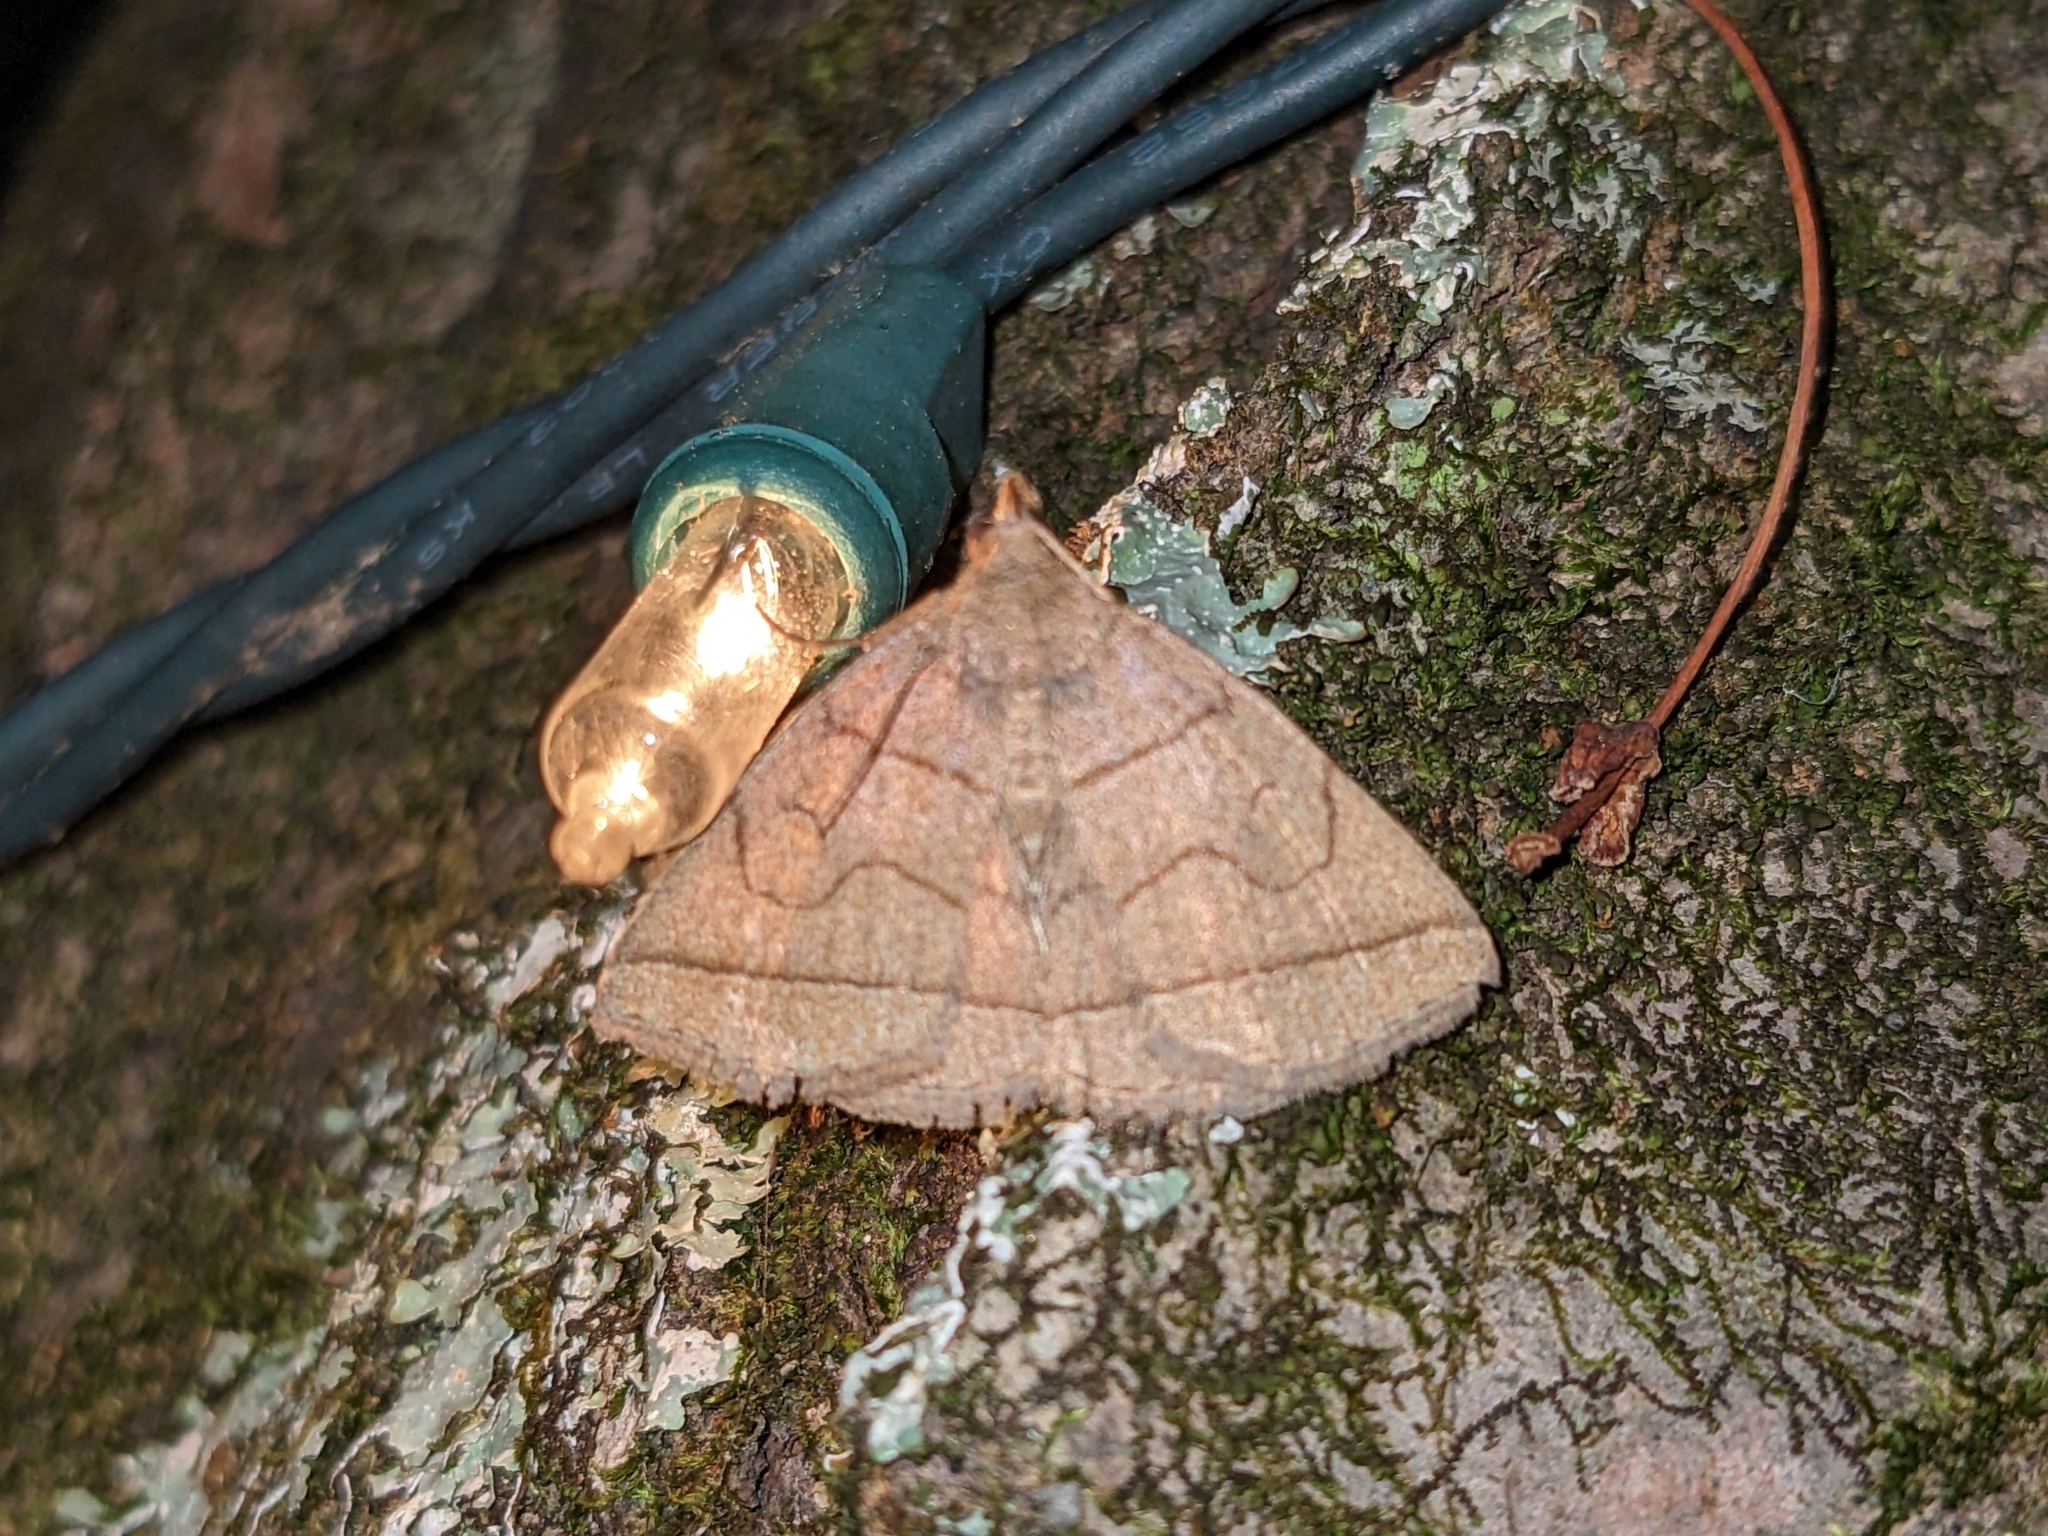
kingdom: Animalia
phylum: Arthropoda
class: Insecta
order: Lepidoptera
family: Erebidae
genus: Zanclognatha
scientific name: Zanclognatha cruralis
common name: Early fan-foot
